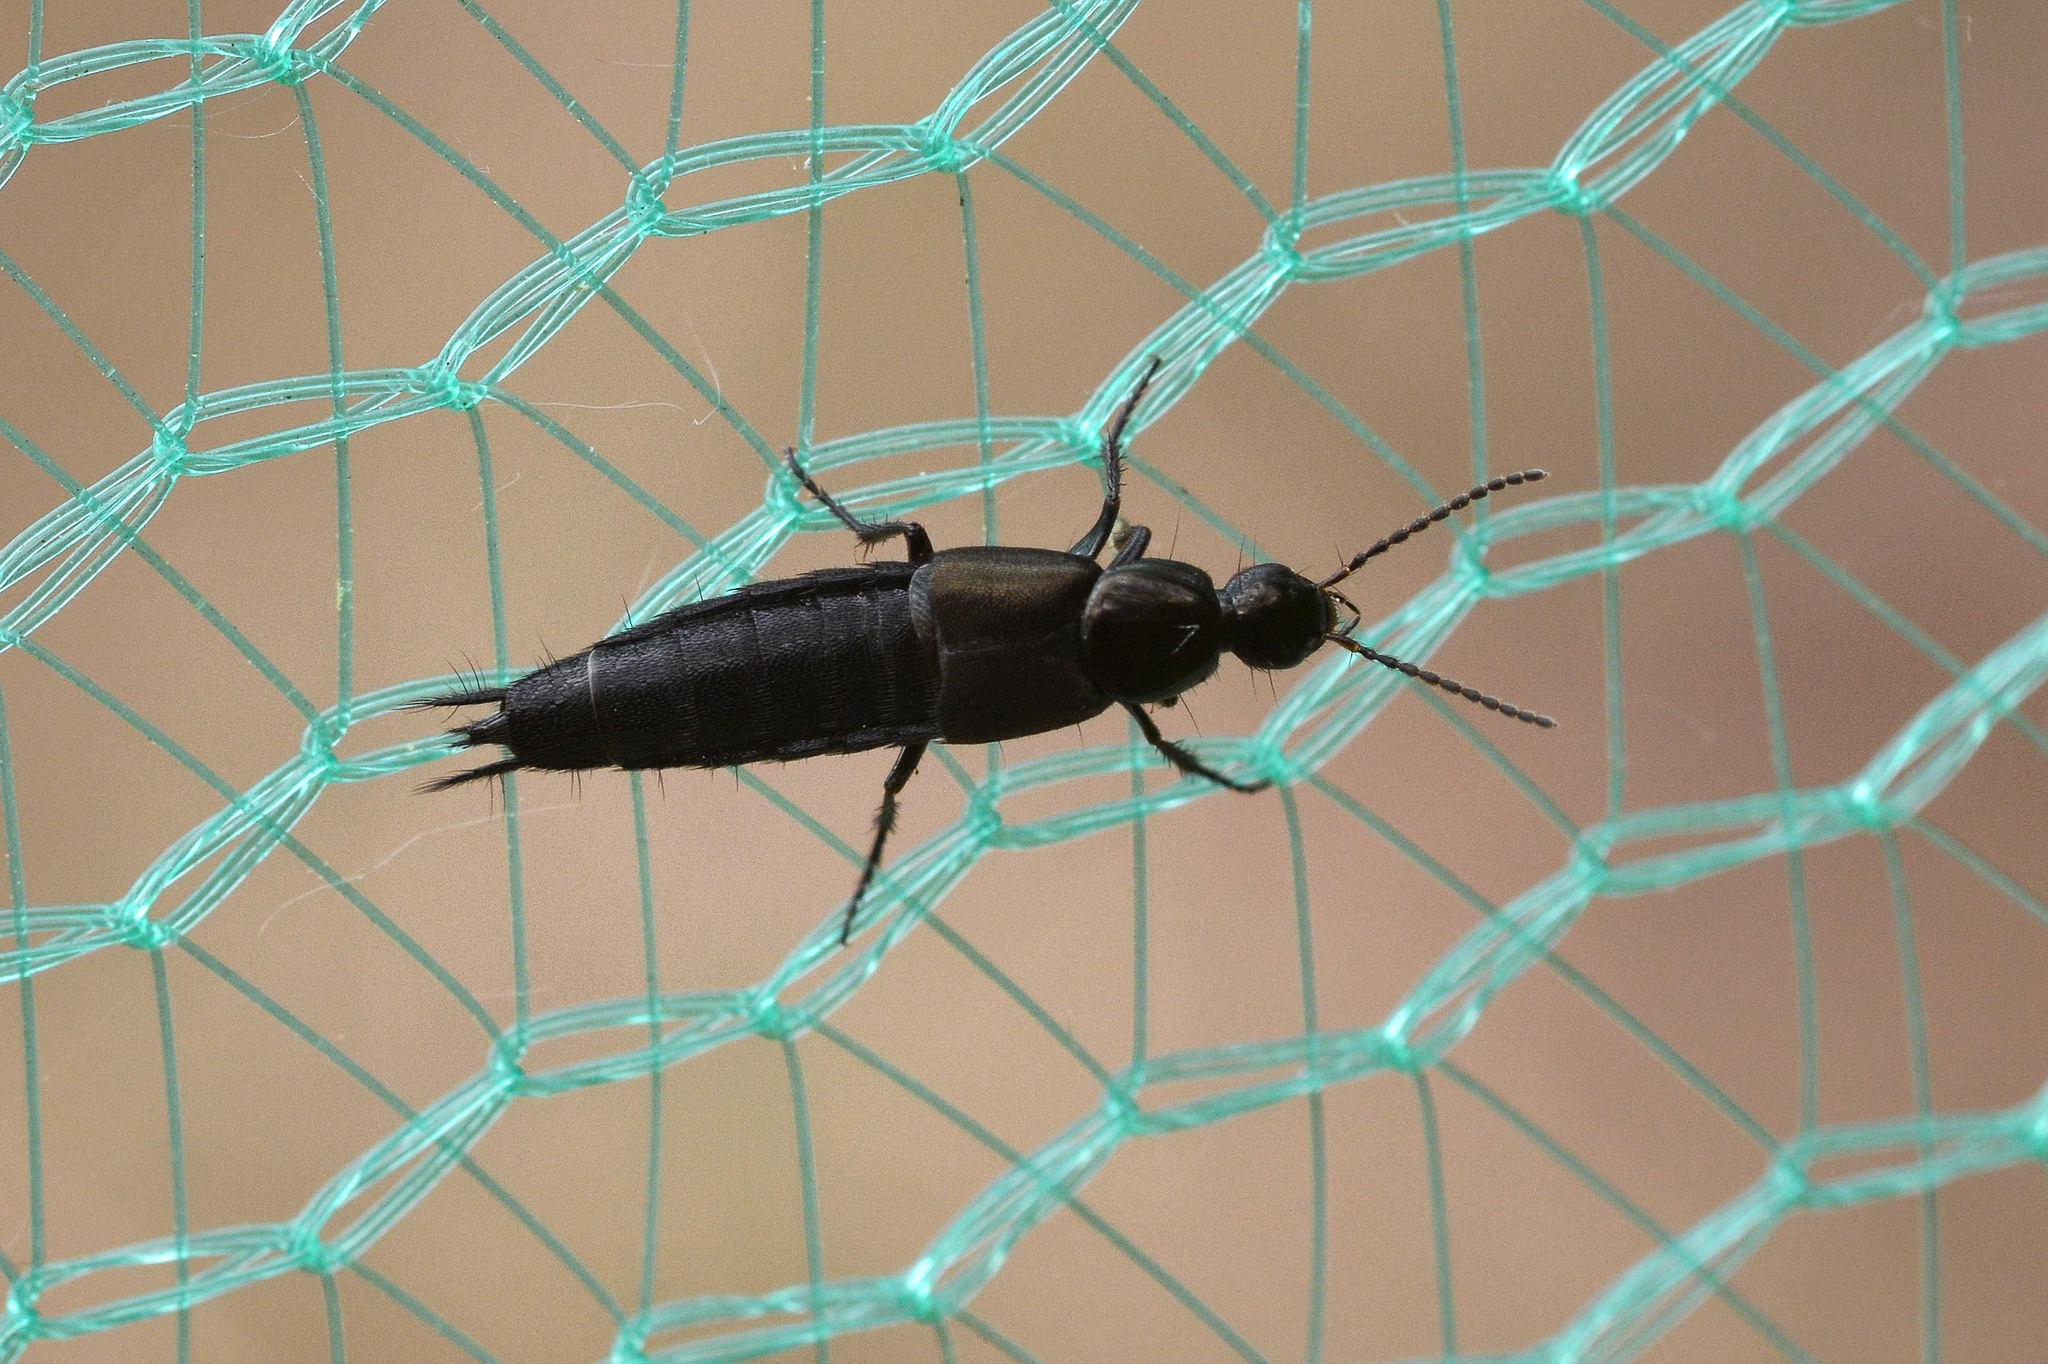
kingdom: Animalia
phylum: Arthropoda
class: Insecta
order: Coleoptera
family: Staphylinidae
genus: Philonthus
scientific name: Philonthus cognatus
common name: Staph beetle
